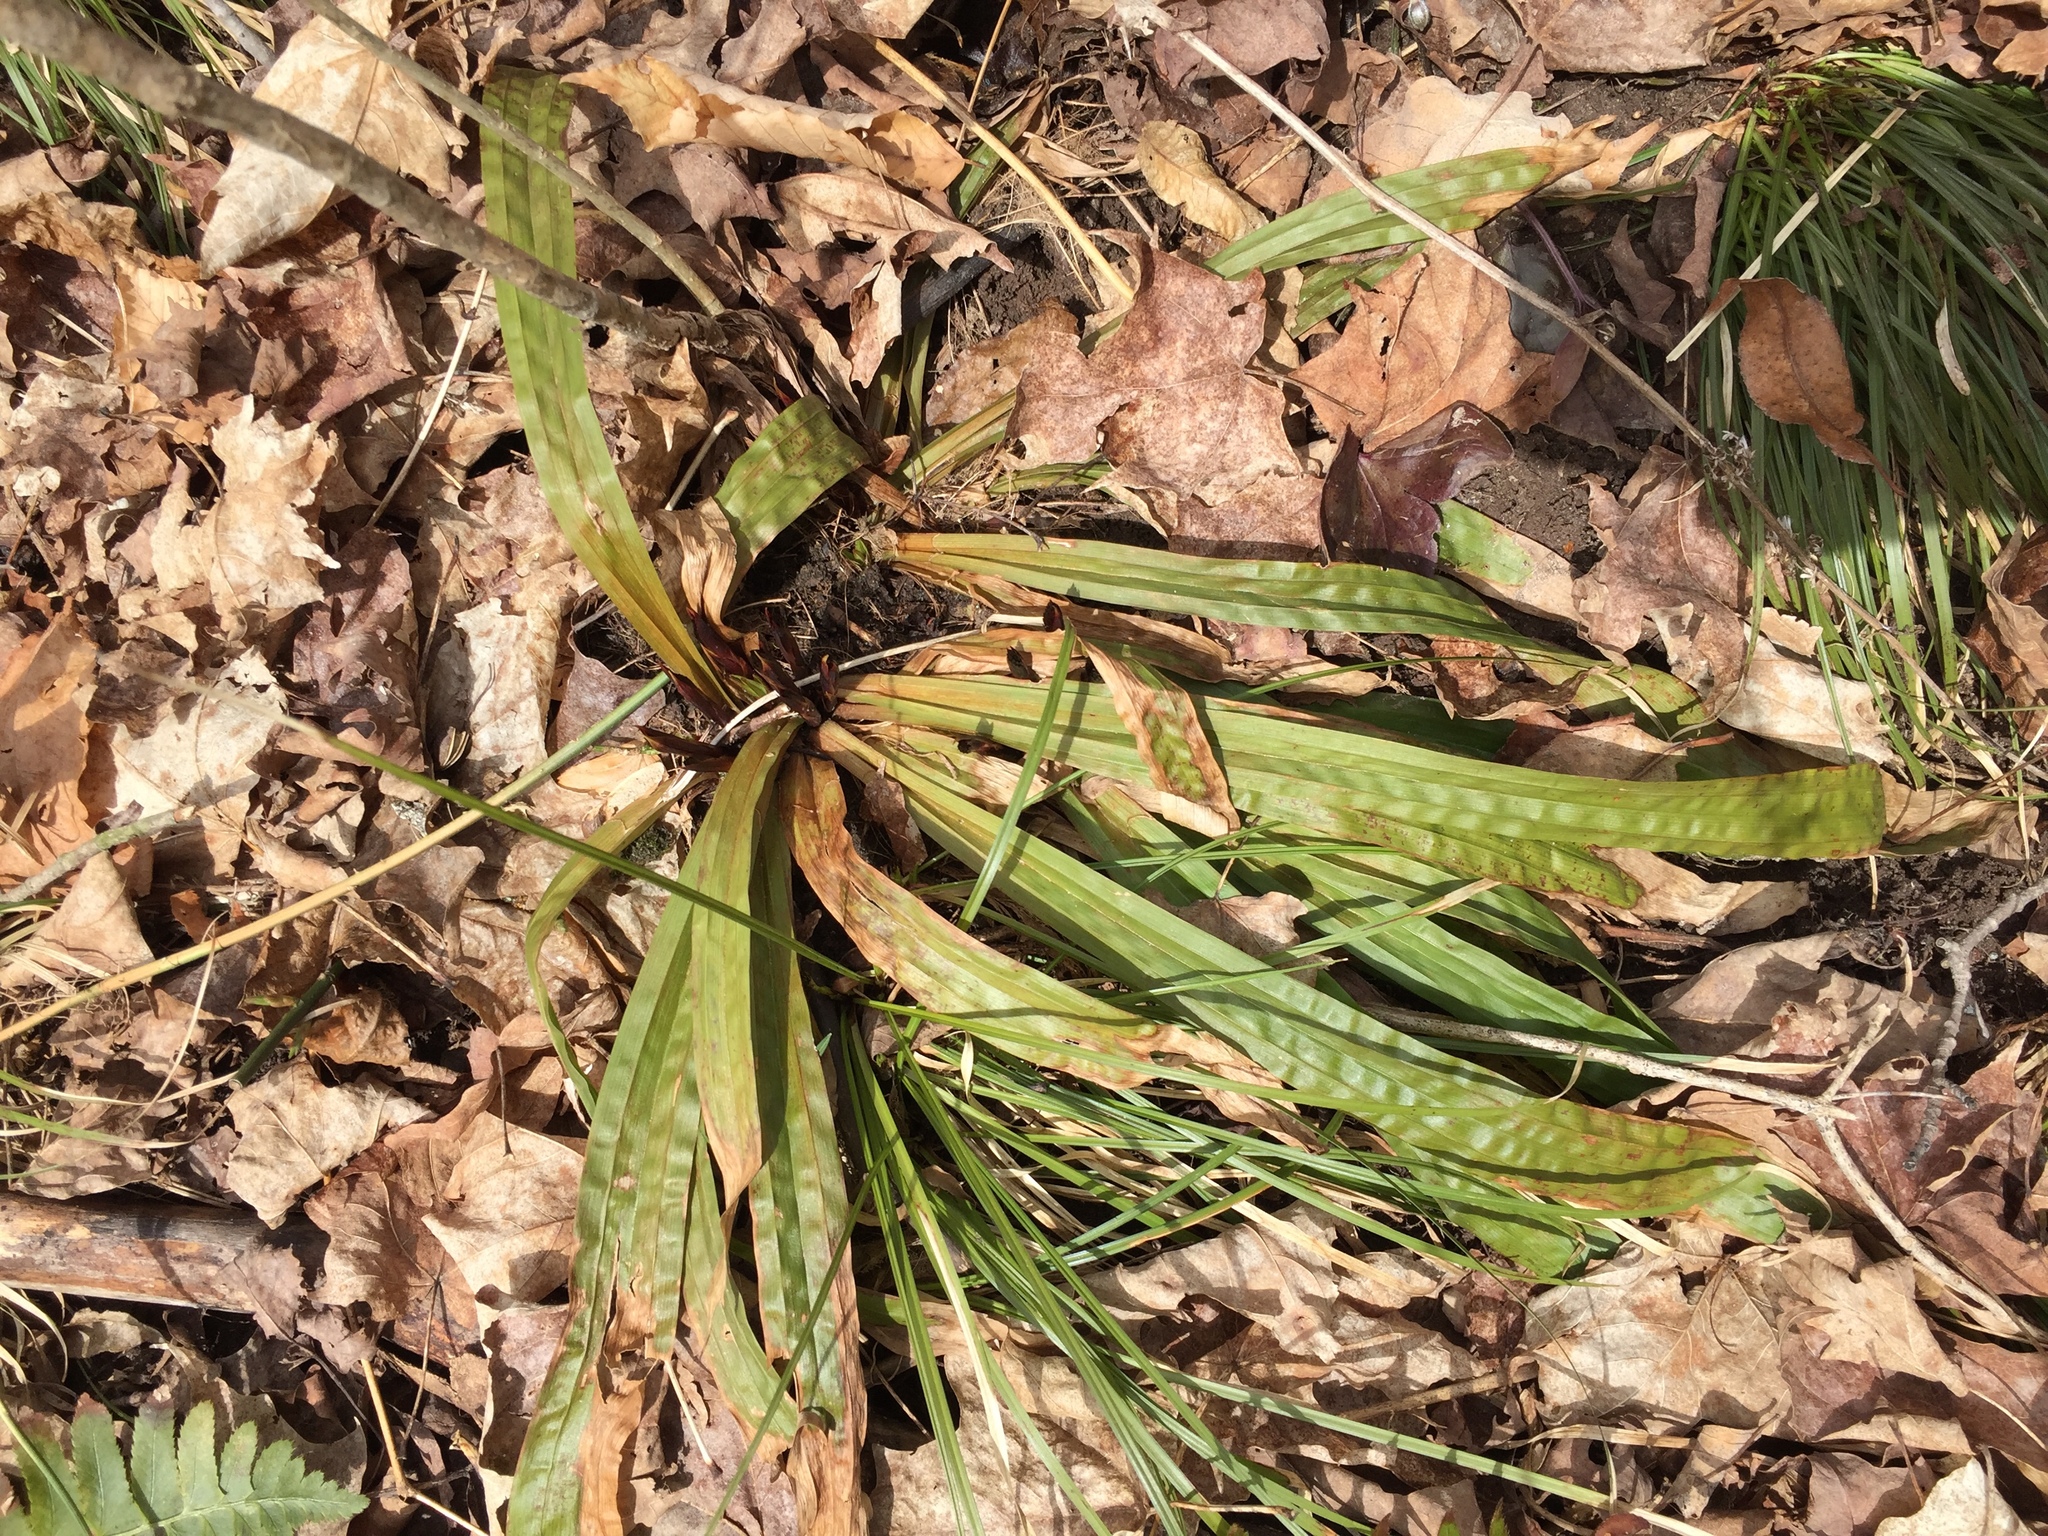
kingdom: Plantae
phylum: Tracheophyta
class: Liliopsida
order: Poales
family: Cyperaceae
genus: Carex
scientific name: Carex plantaginea
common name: Plantain-leaved sedge
